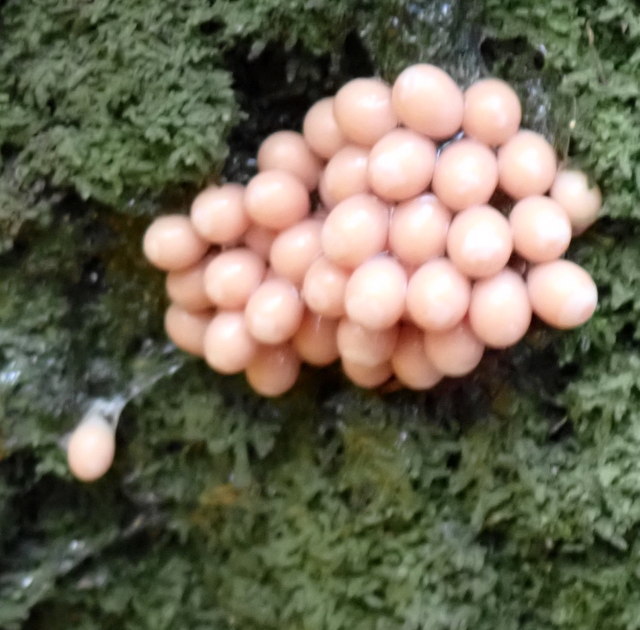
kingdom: Animalia
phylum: Mollusca
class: Gastropoda
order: Architaenioglossa
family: Ampullariidae
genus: Pomacea
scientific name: Pomacea paludosa
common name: Florida applesnail
